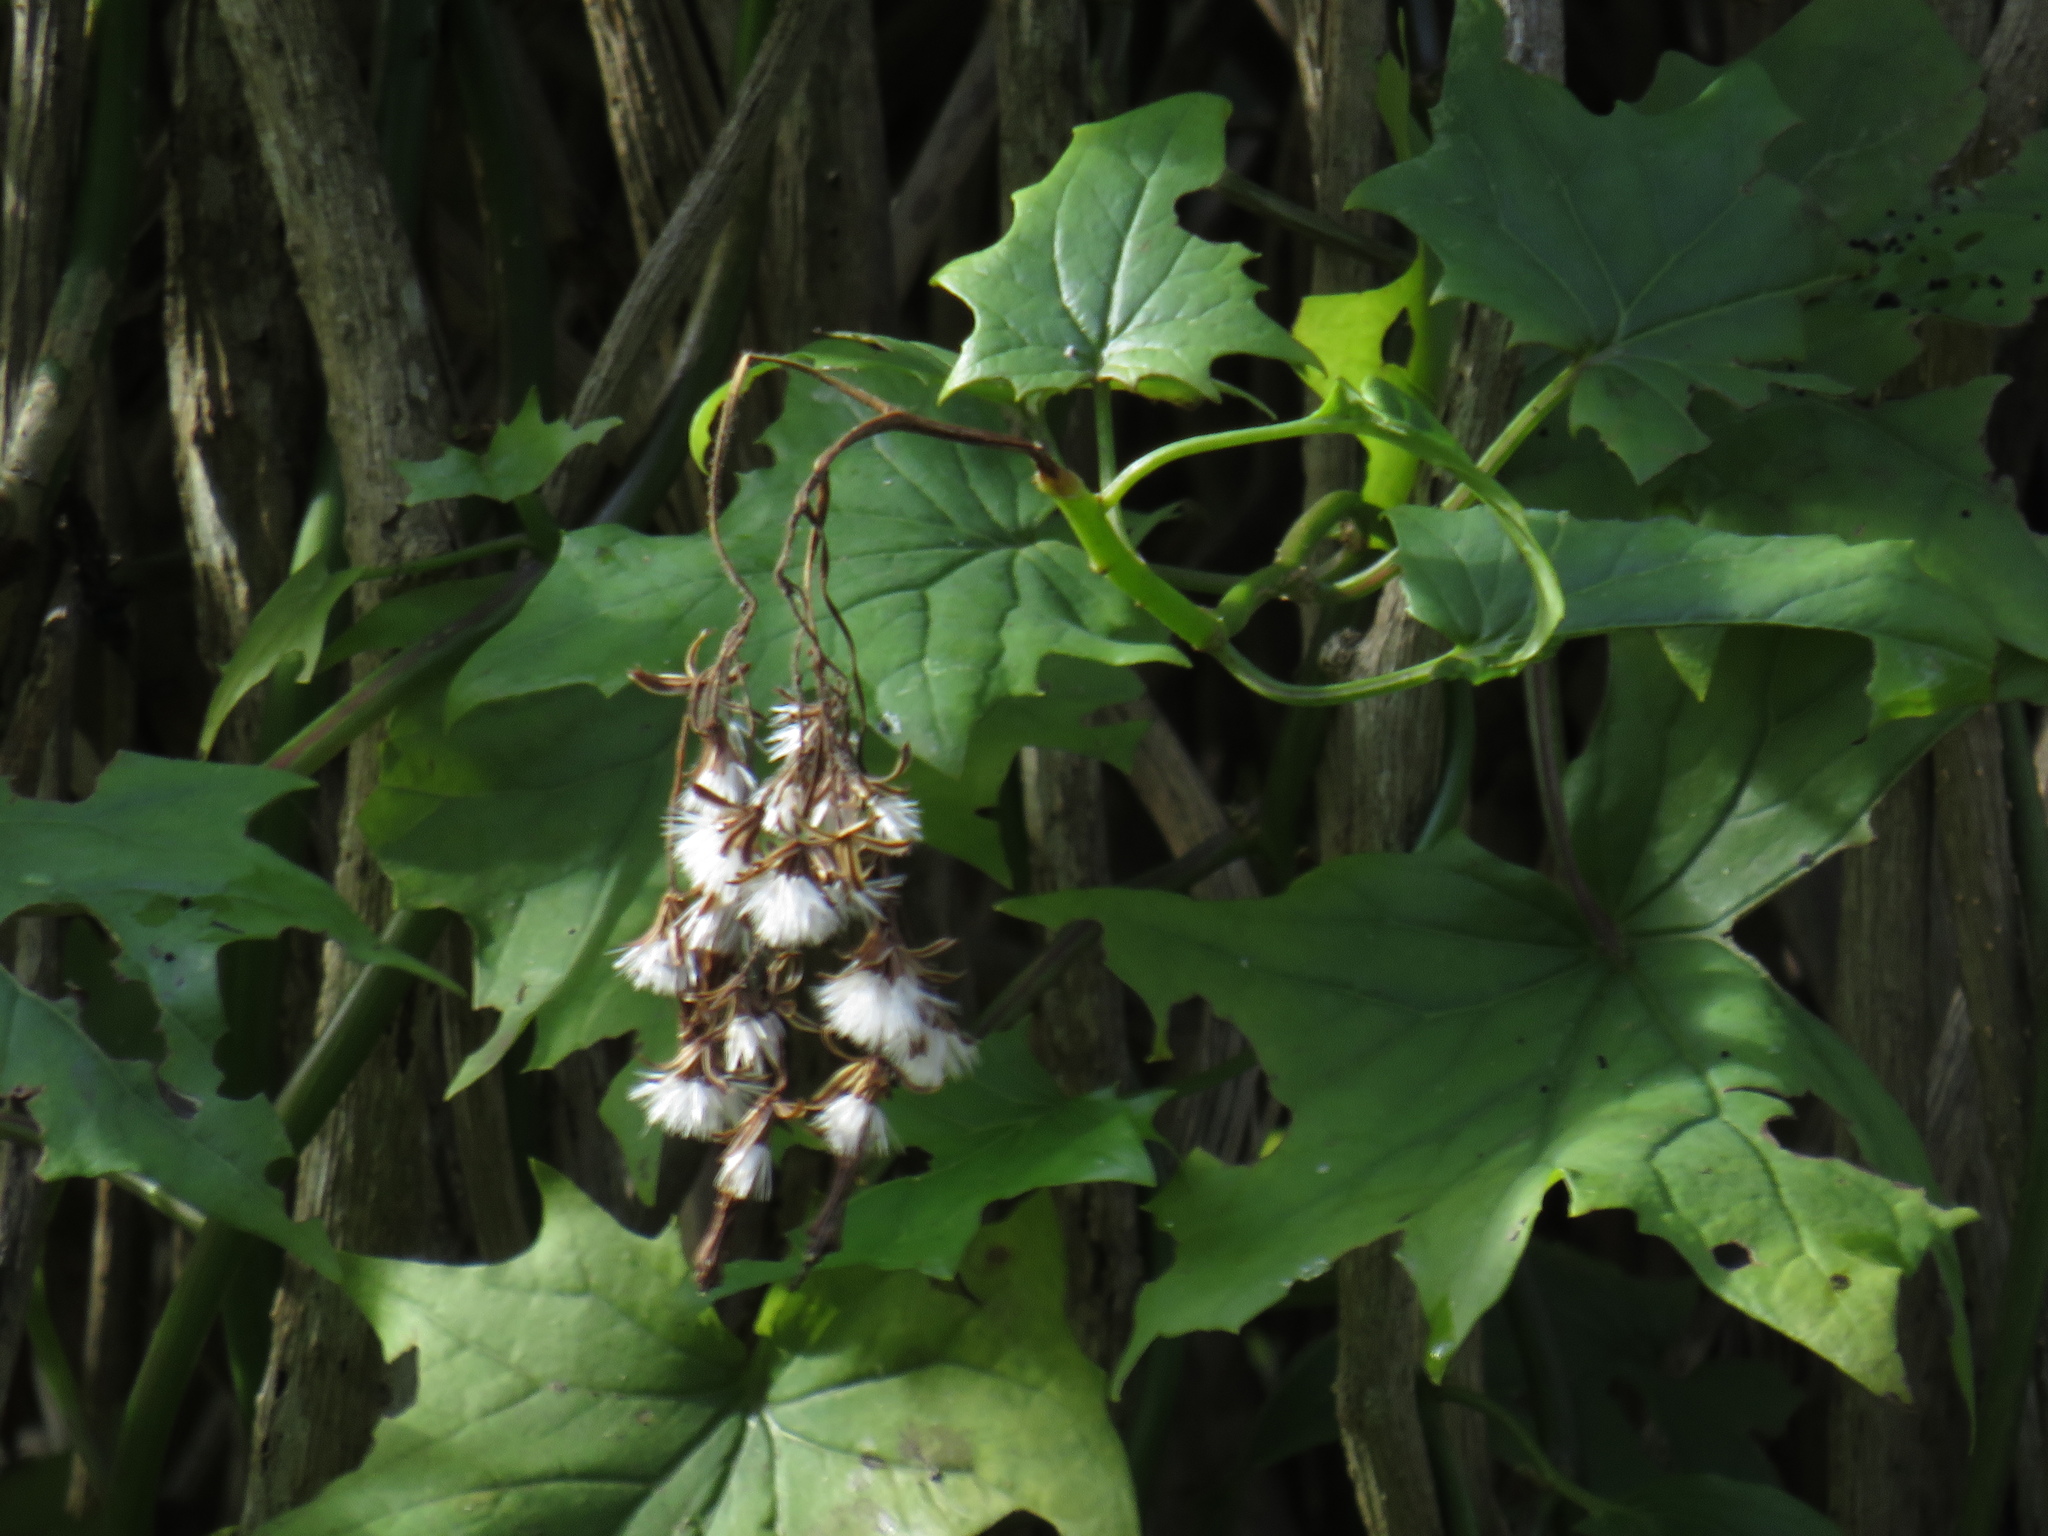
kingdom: Plantae
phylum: Tracheophyta
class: Magnoliopsida
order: Asterales
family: Asteraceae
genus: Senecio
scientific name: Senecio tamoides
